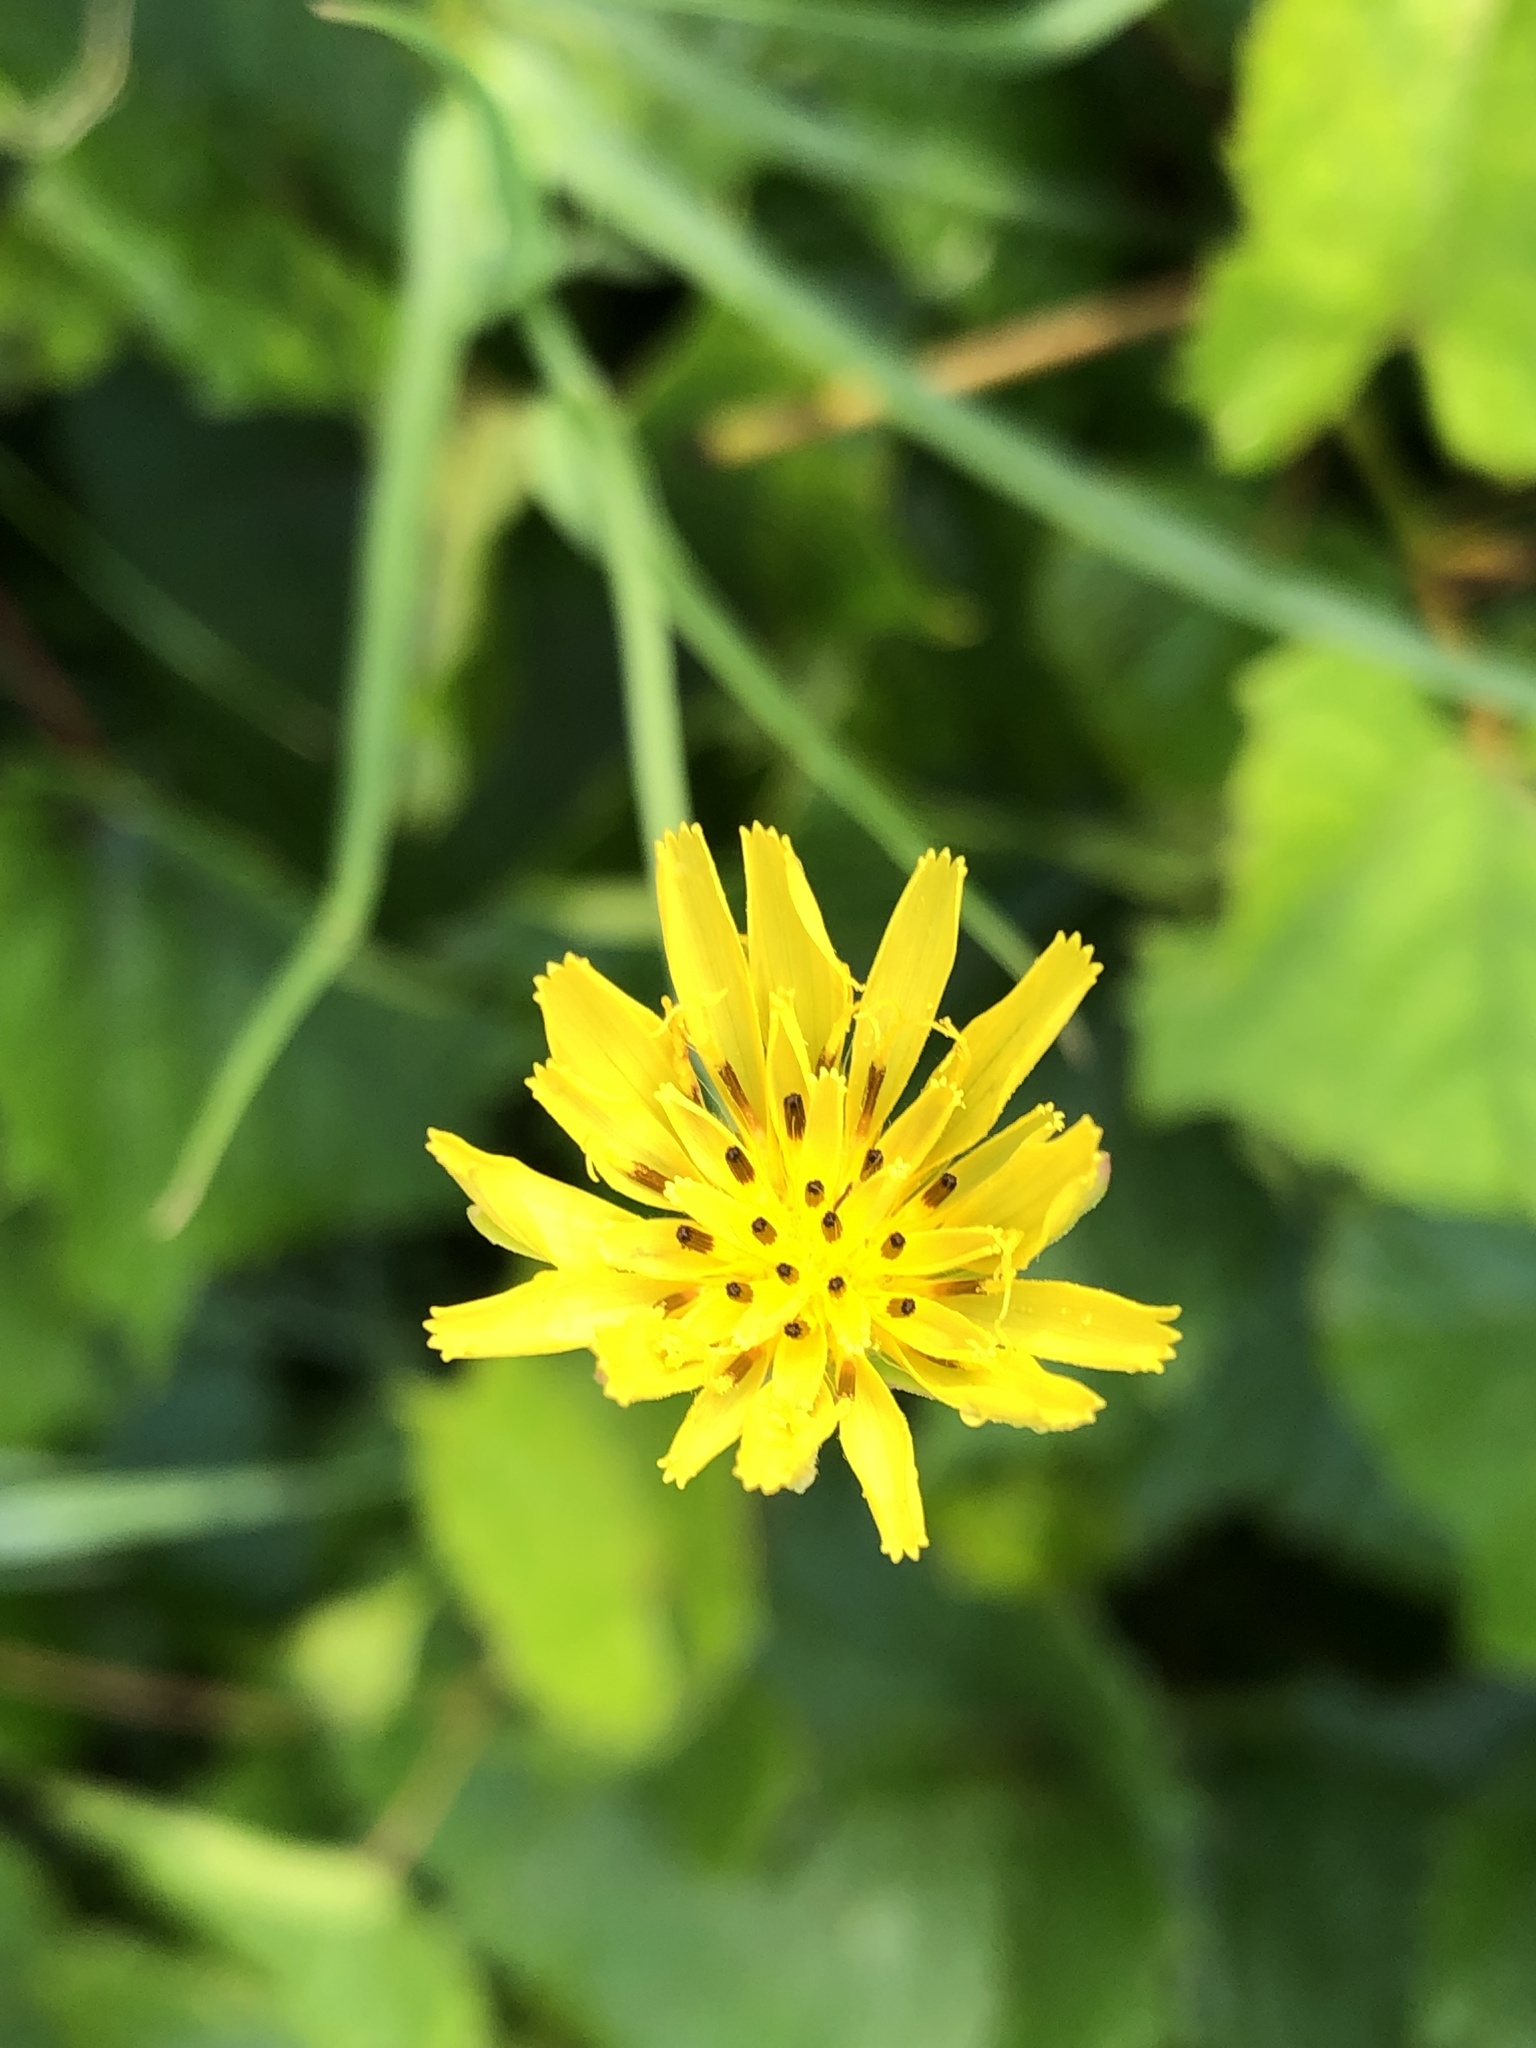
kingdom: Plantae
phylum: Tracheophyta
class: Magnoliopsida
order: Asterales
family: Asteraceae
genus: Tragopogon
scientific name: Tragopogon pratensis
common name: Goat's-beard
